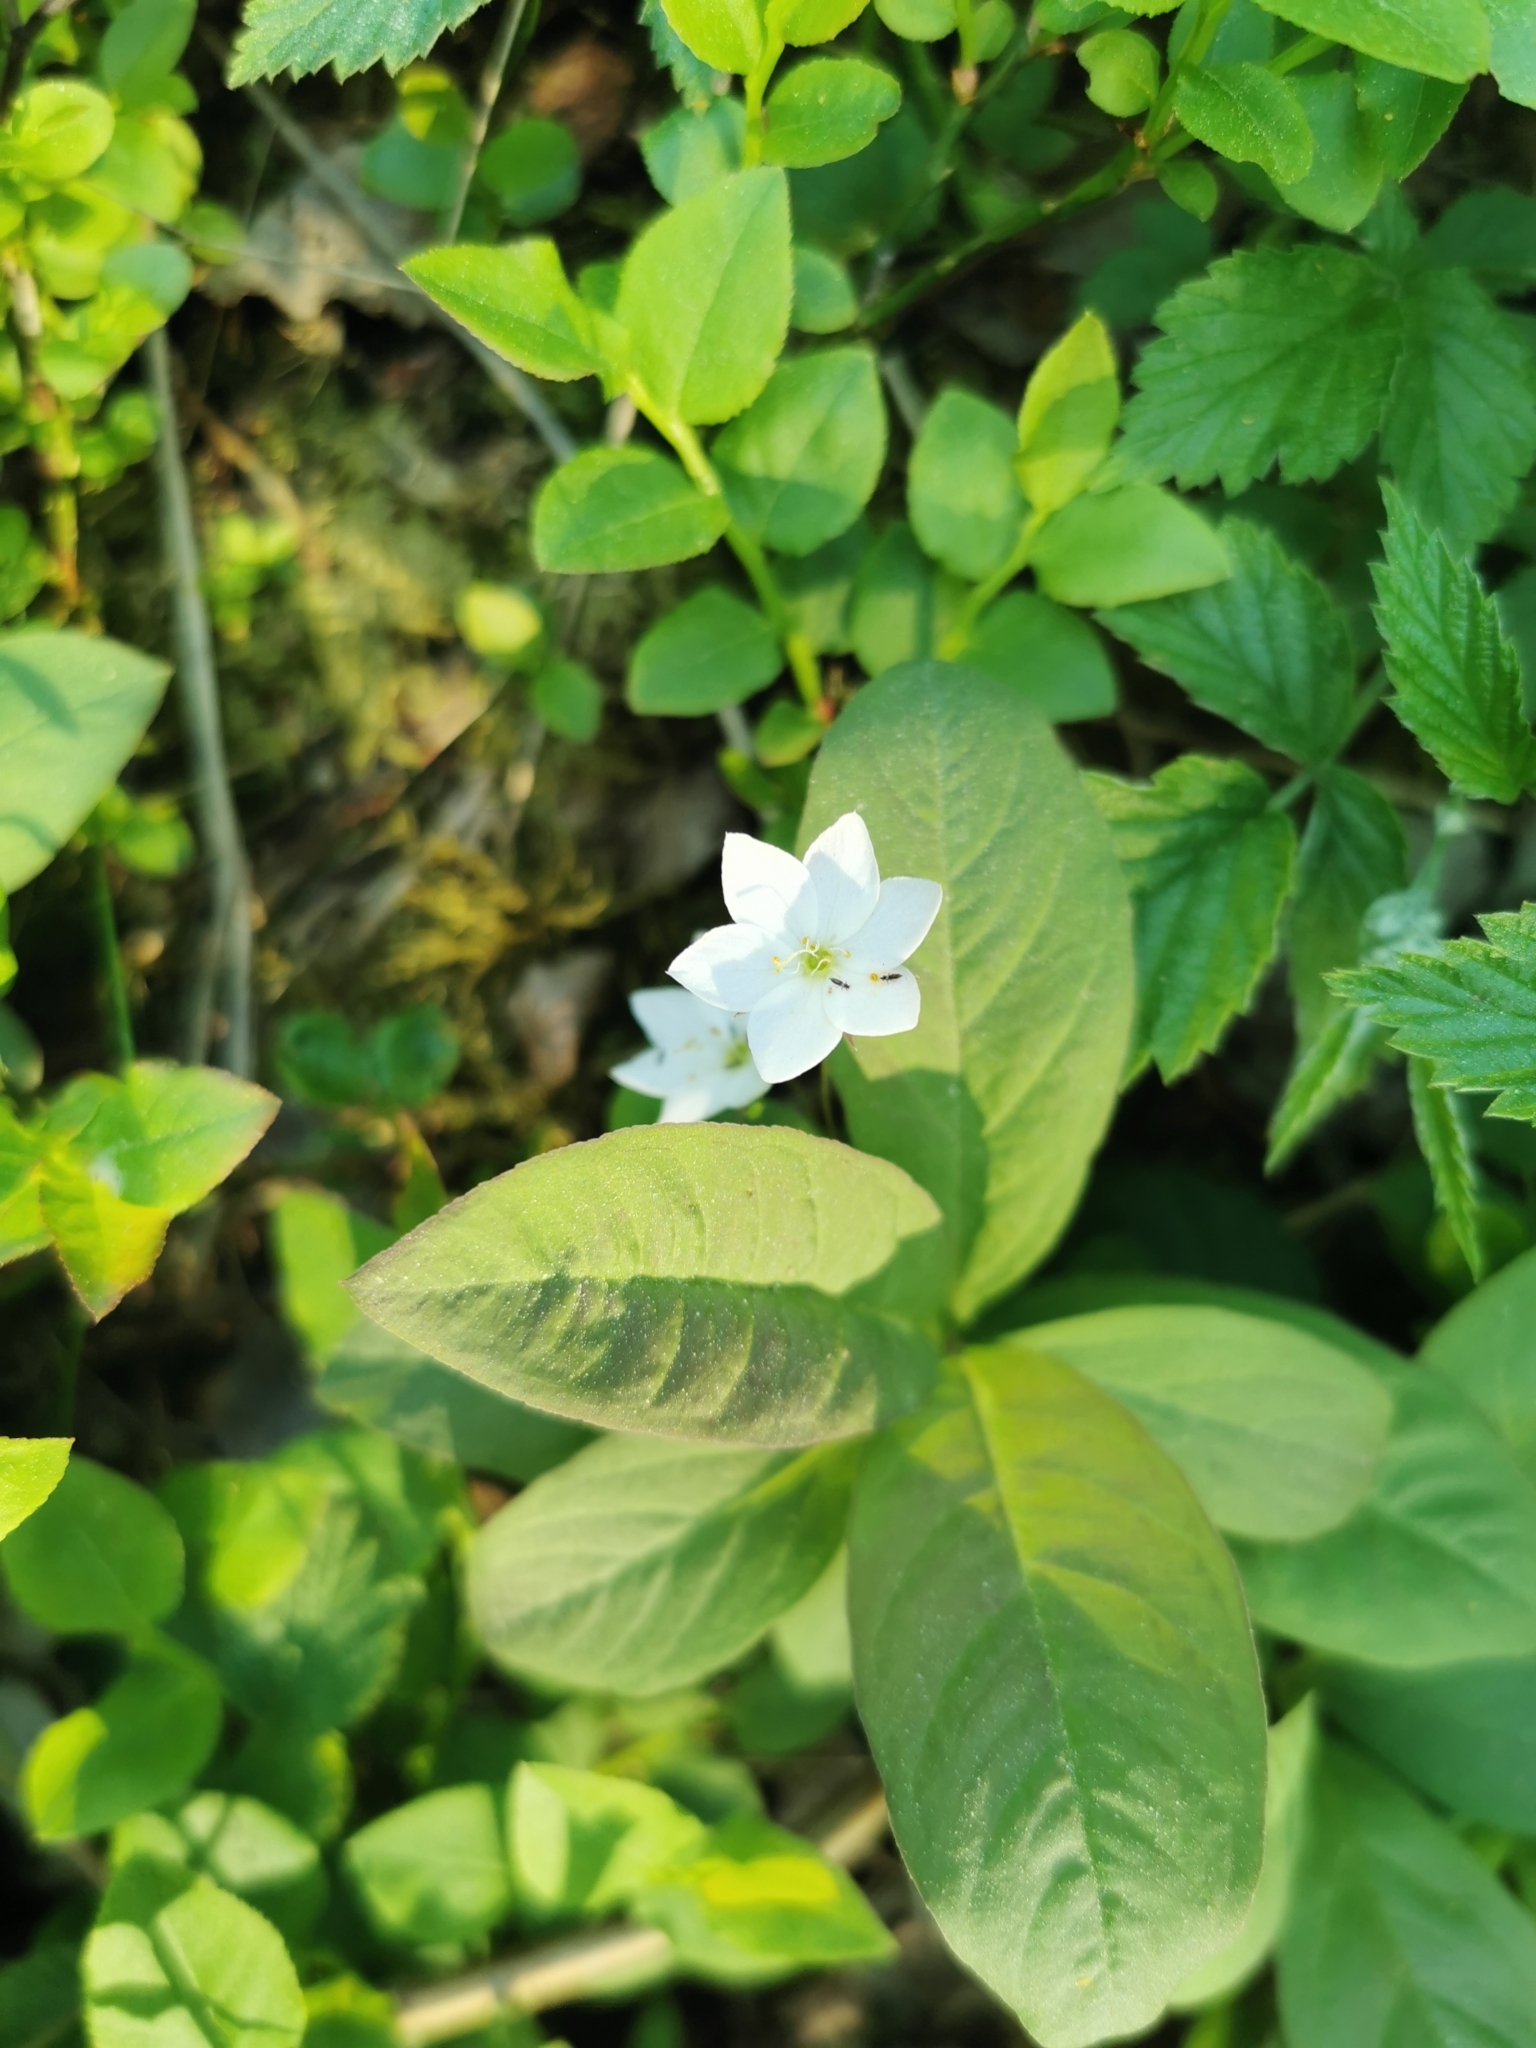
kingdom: Plantae
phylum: Tracheophyta
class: Magnoliopsida
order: Ericales
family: Primulaceae
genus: Lysimachia
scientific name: Lysimachia europaea
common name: Arctic starflower
